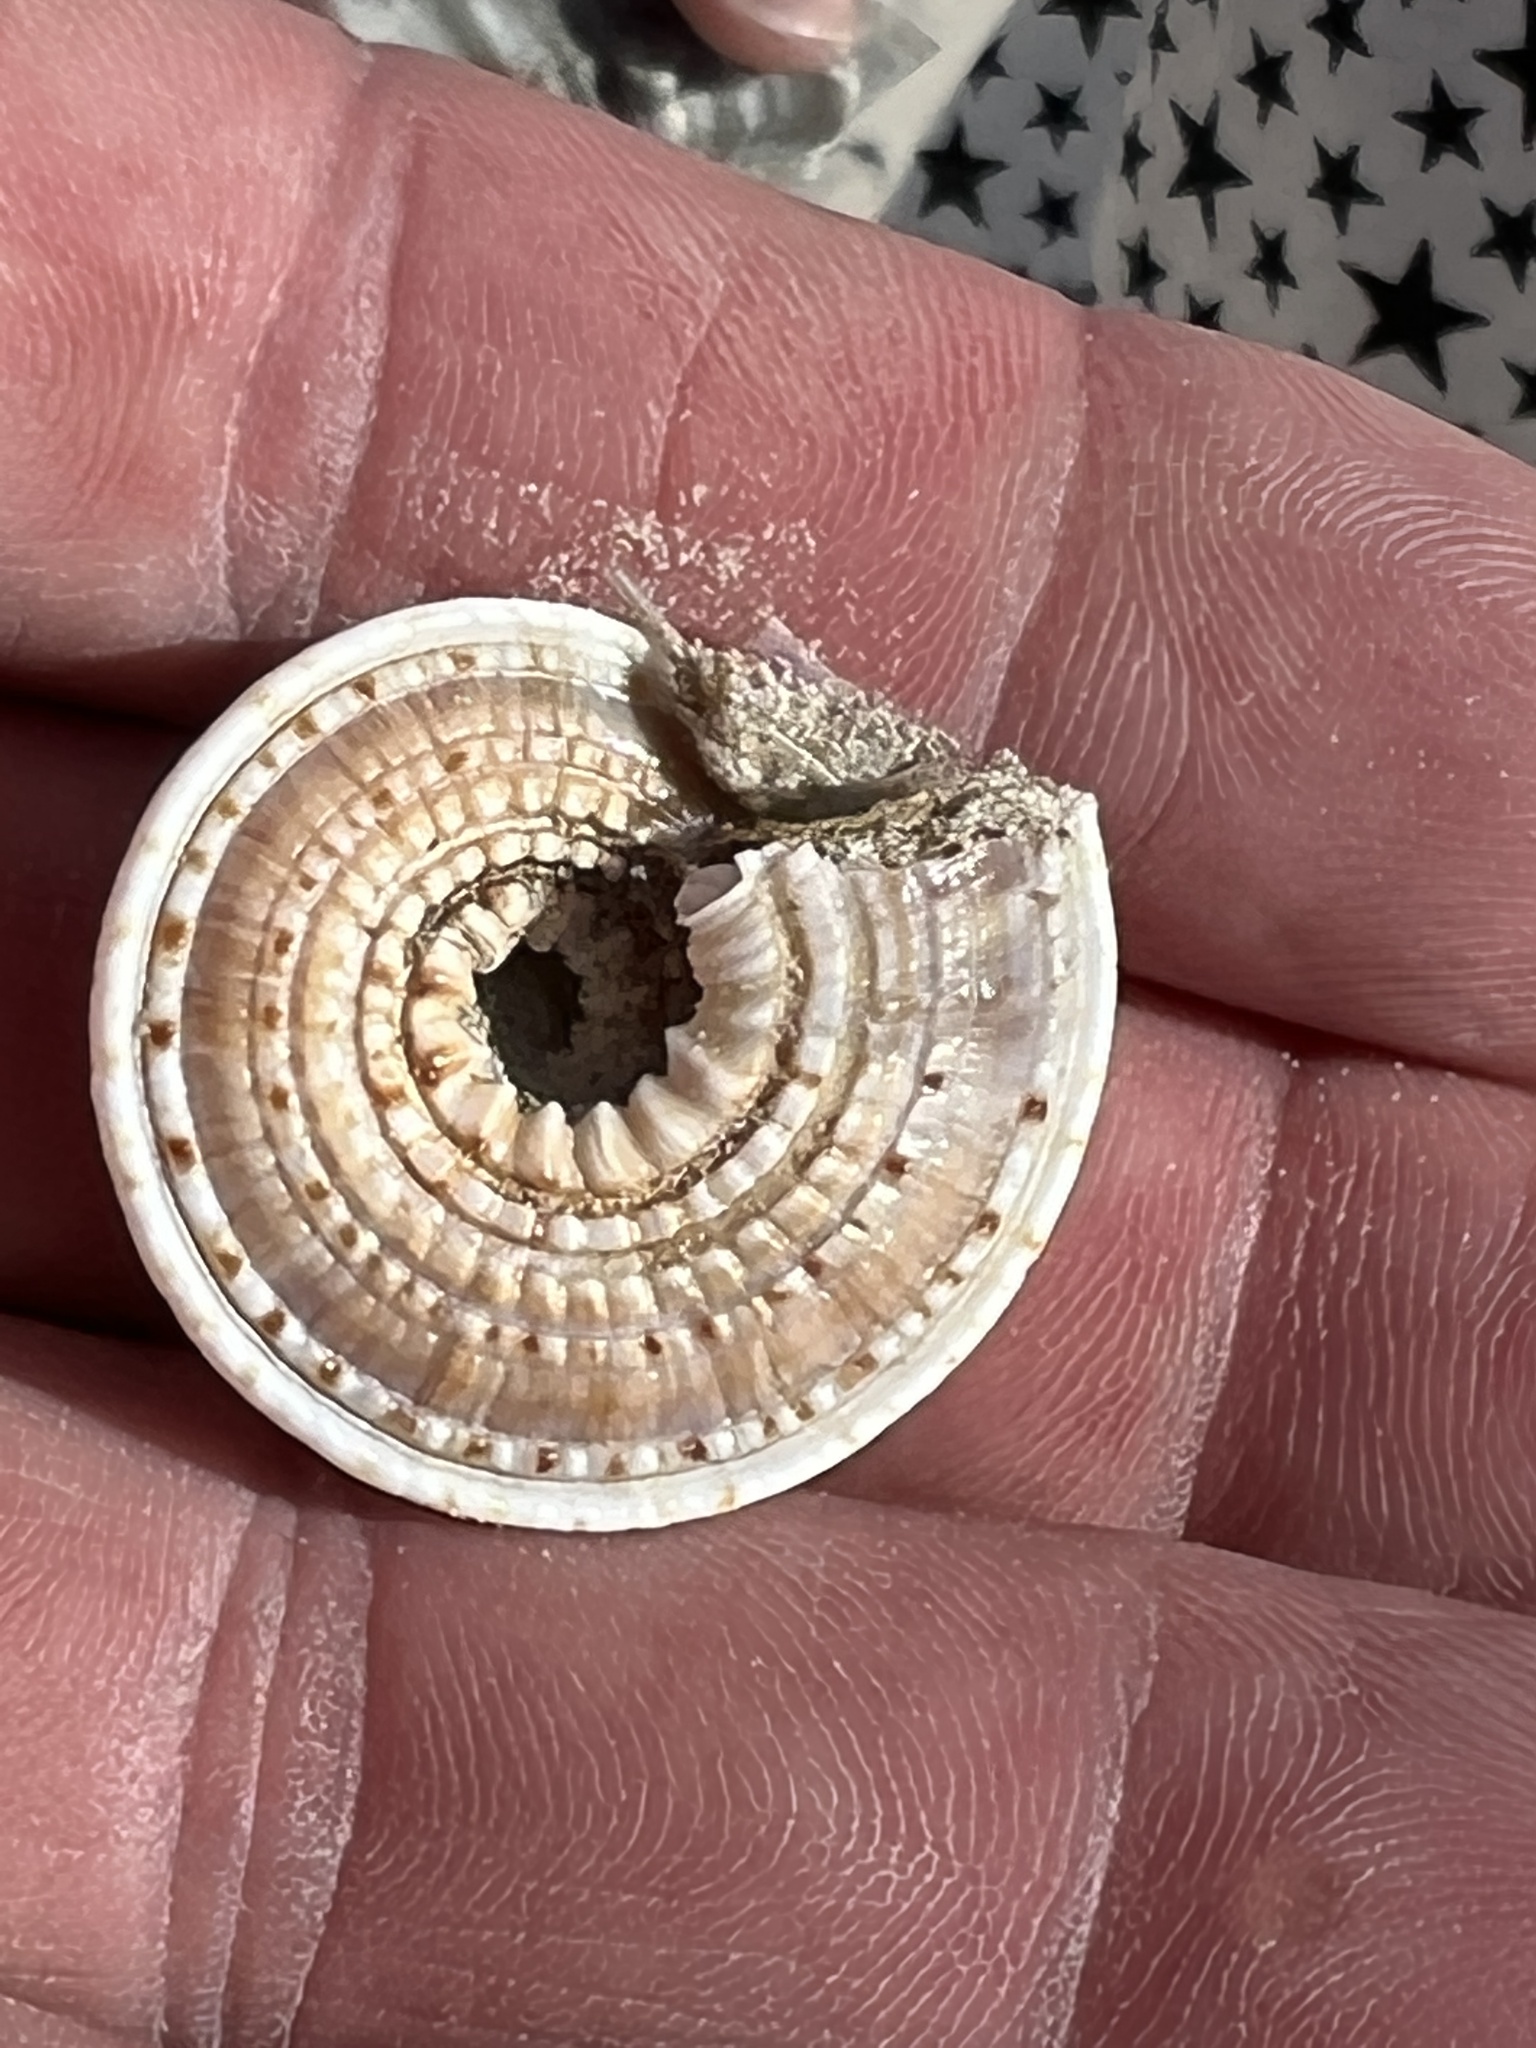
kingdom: Animalia
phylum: Mollusca
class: Gastropoda
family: Architectonicidae
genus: Architectonica
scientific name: Architectonica nobilis
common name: Common sundial
